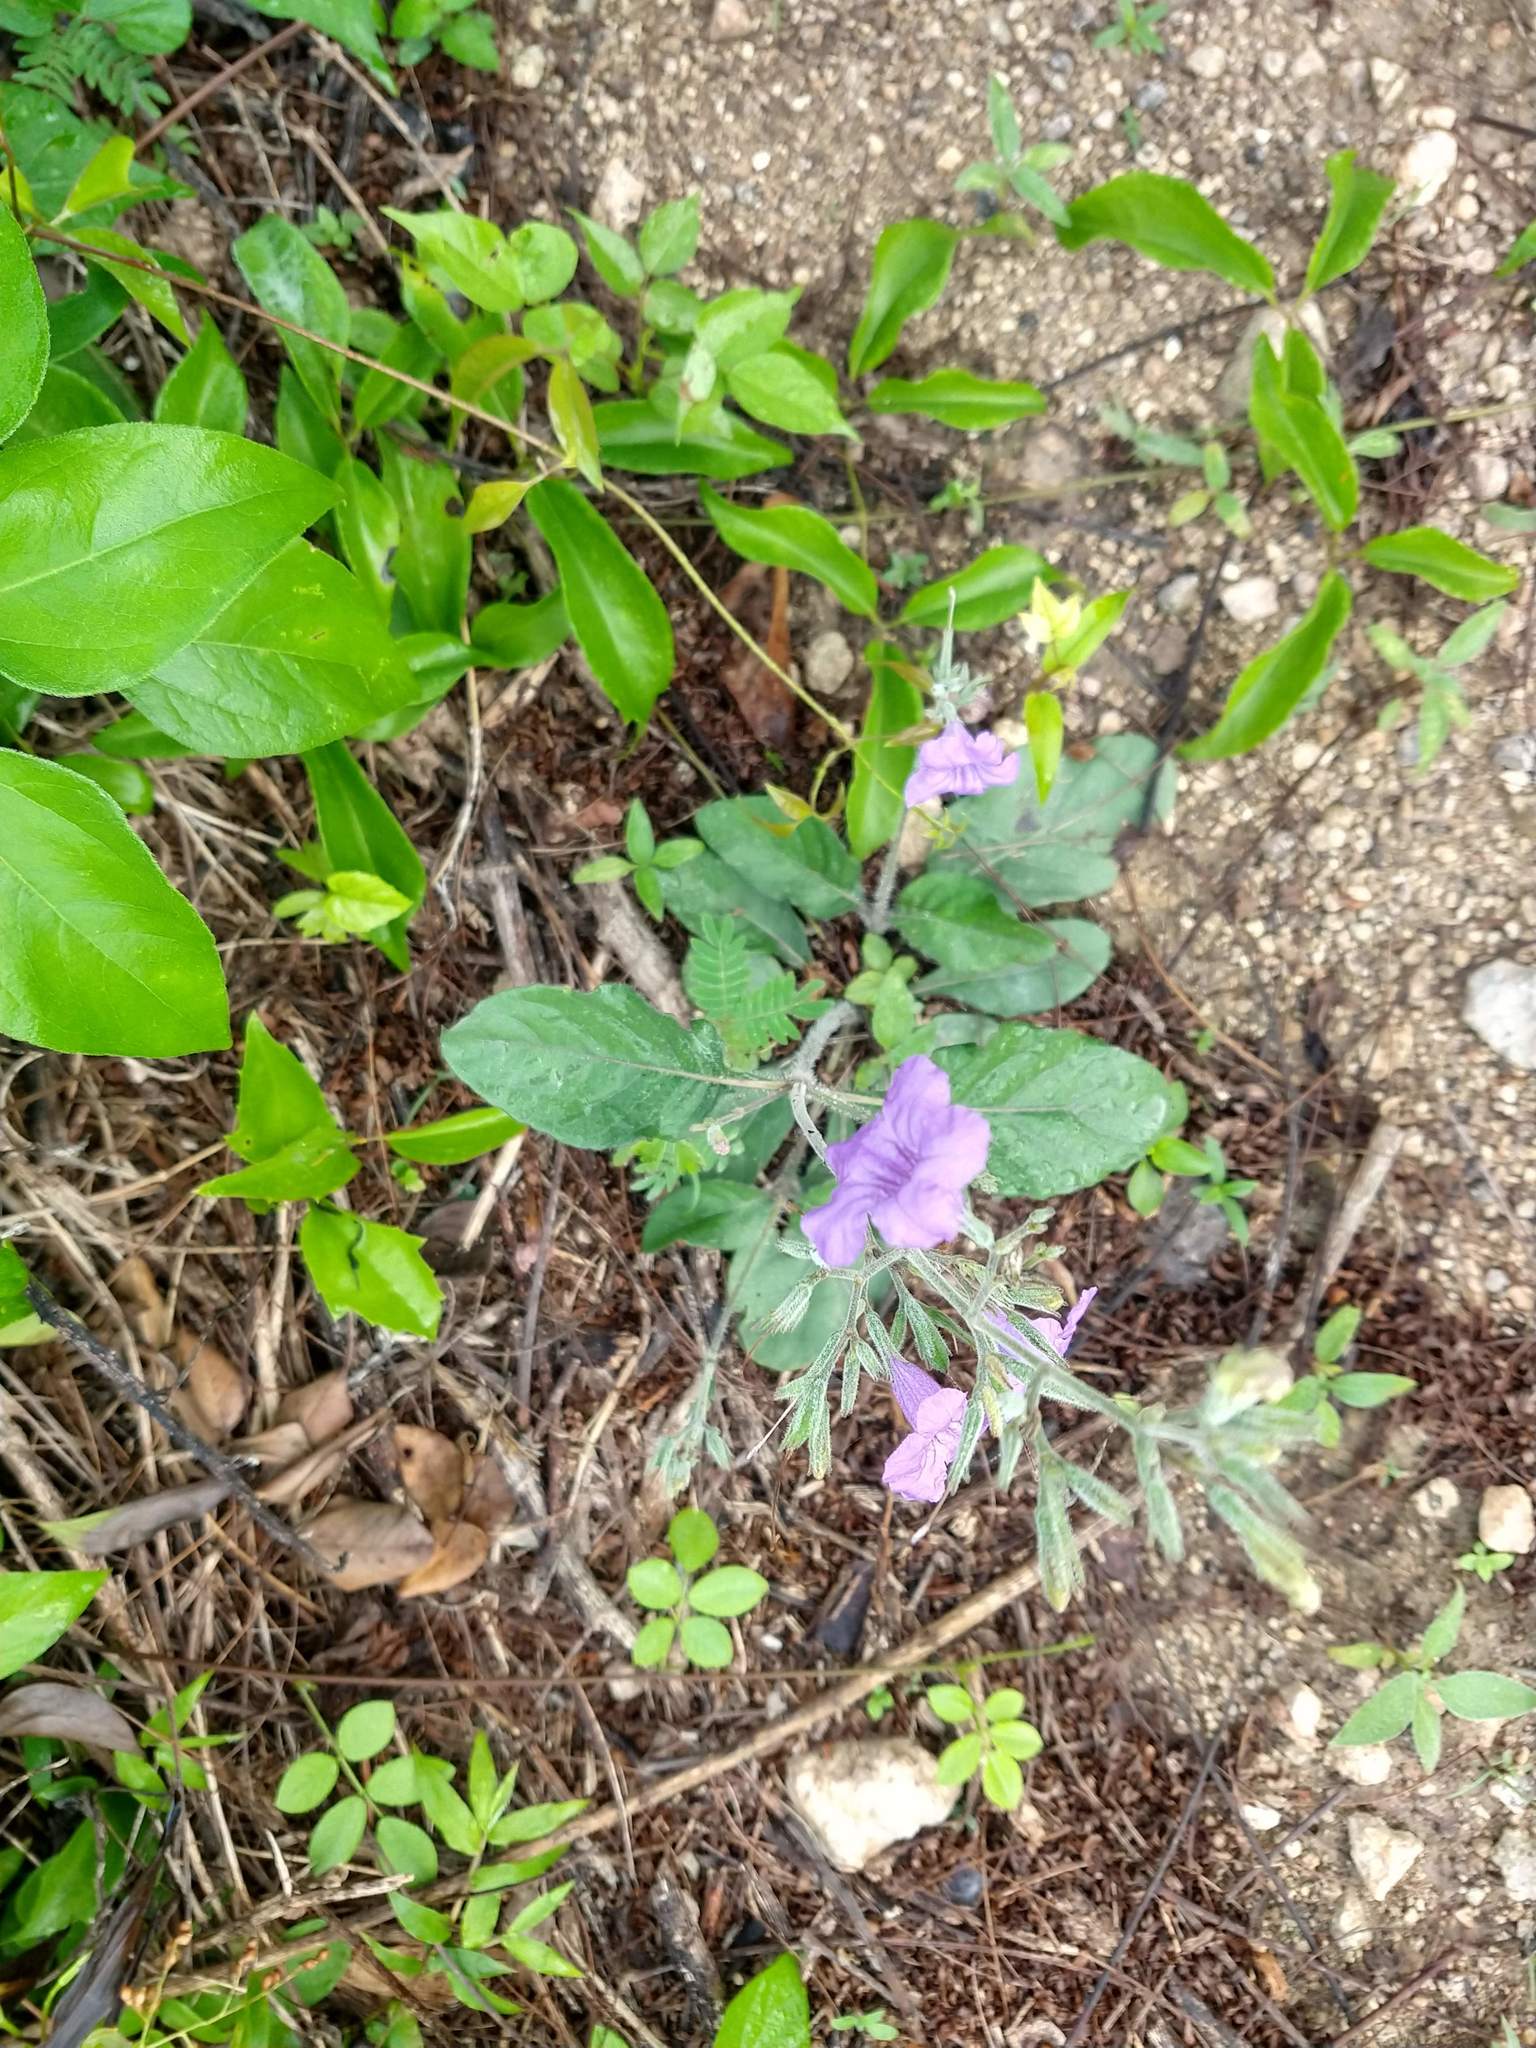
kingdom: Plantae
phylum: Tracheophyta
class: Magnoliopsida
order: Lamiales
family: Acanthaceae
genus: Ruellia
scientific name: Ruellia ciliatiflora
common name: Hairyflower wild petunia
